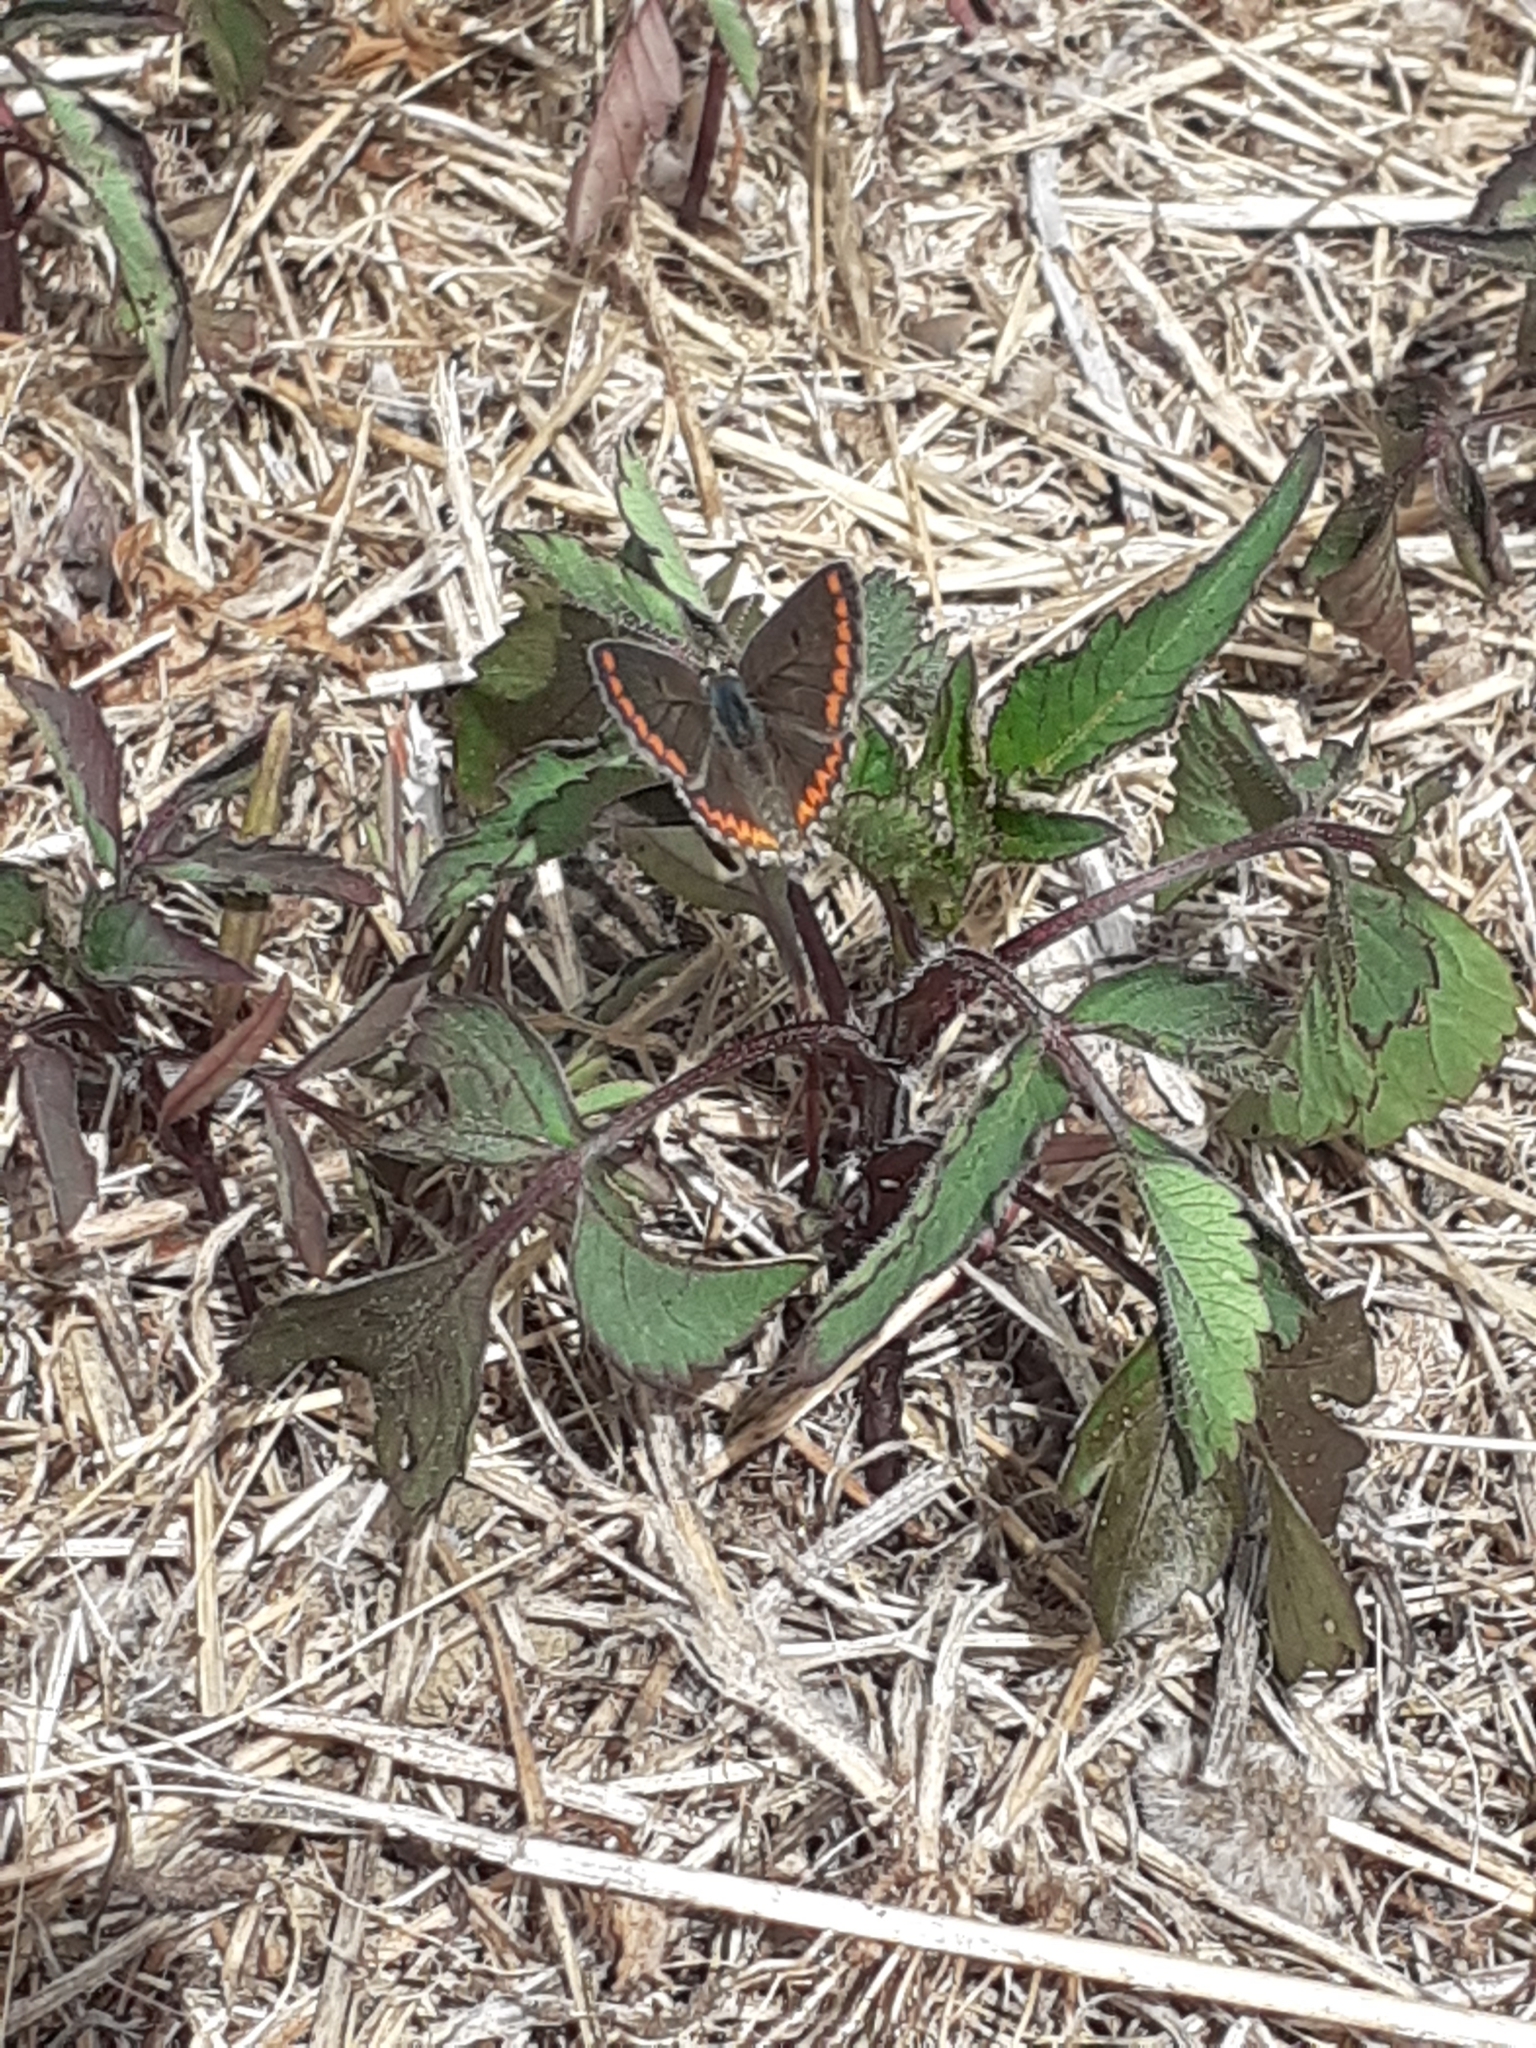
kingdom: Animalia
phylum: Arthropoda
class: Insecta
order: Lepidoptera
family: Lycaenidae
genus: Aricia
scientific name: Aricia cramera
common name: Eschscholtz´s brown  argus
